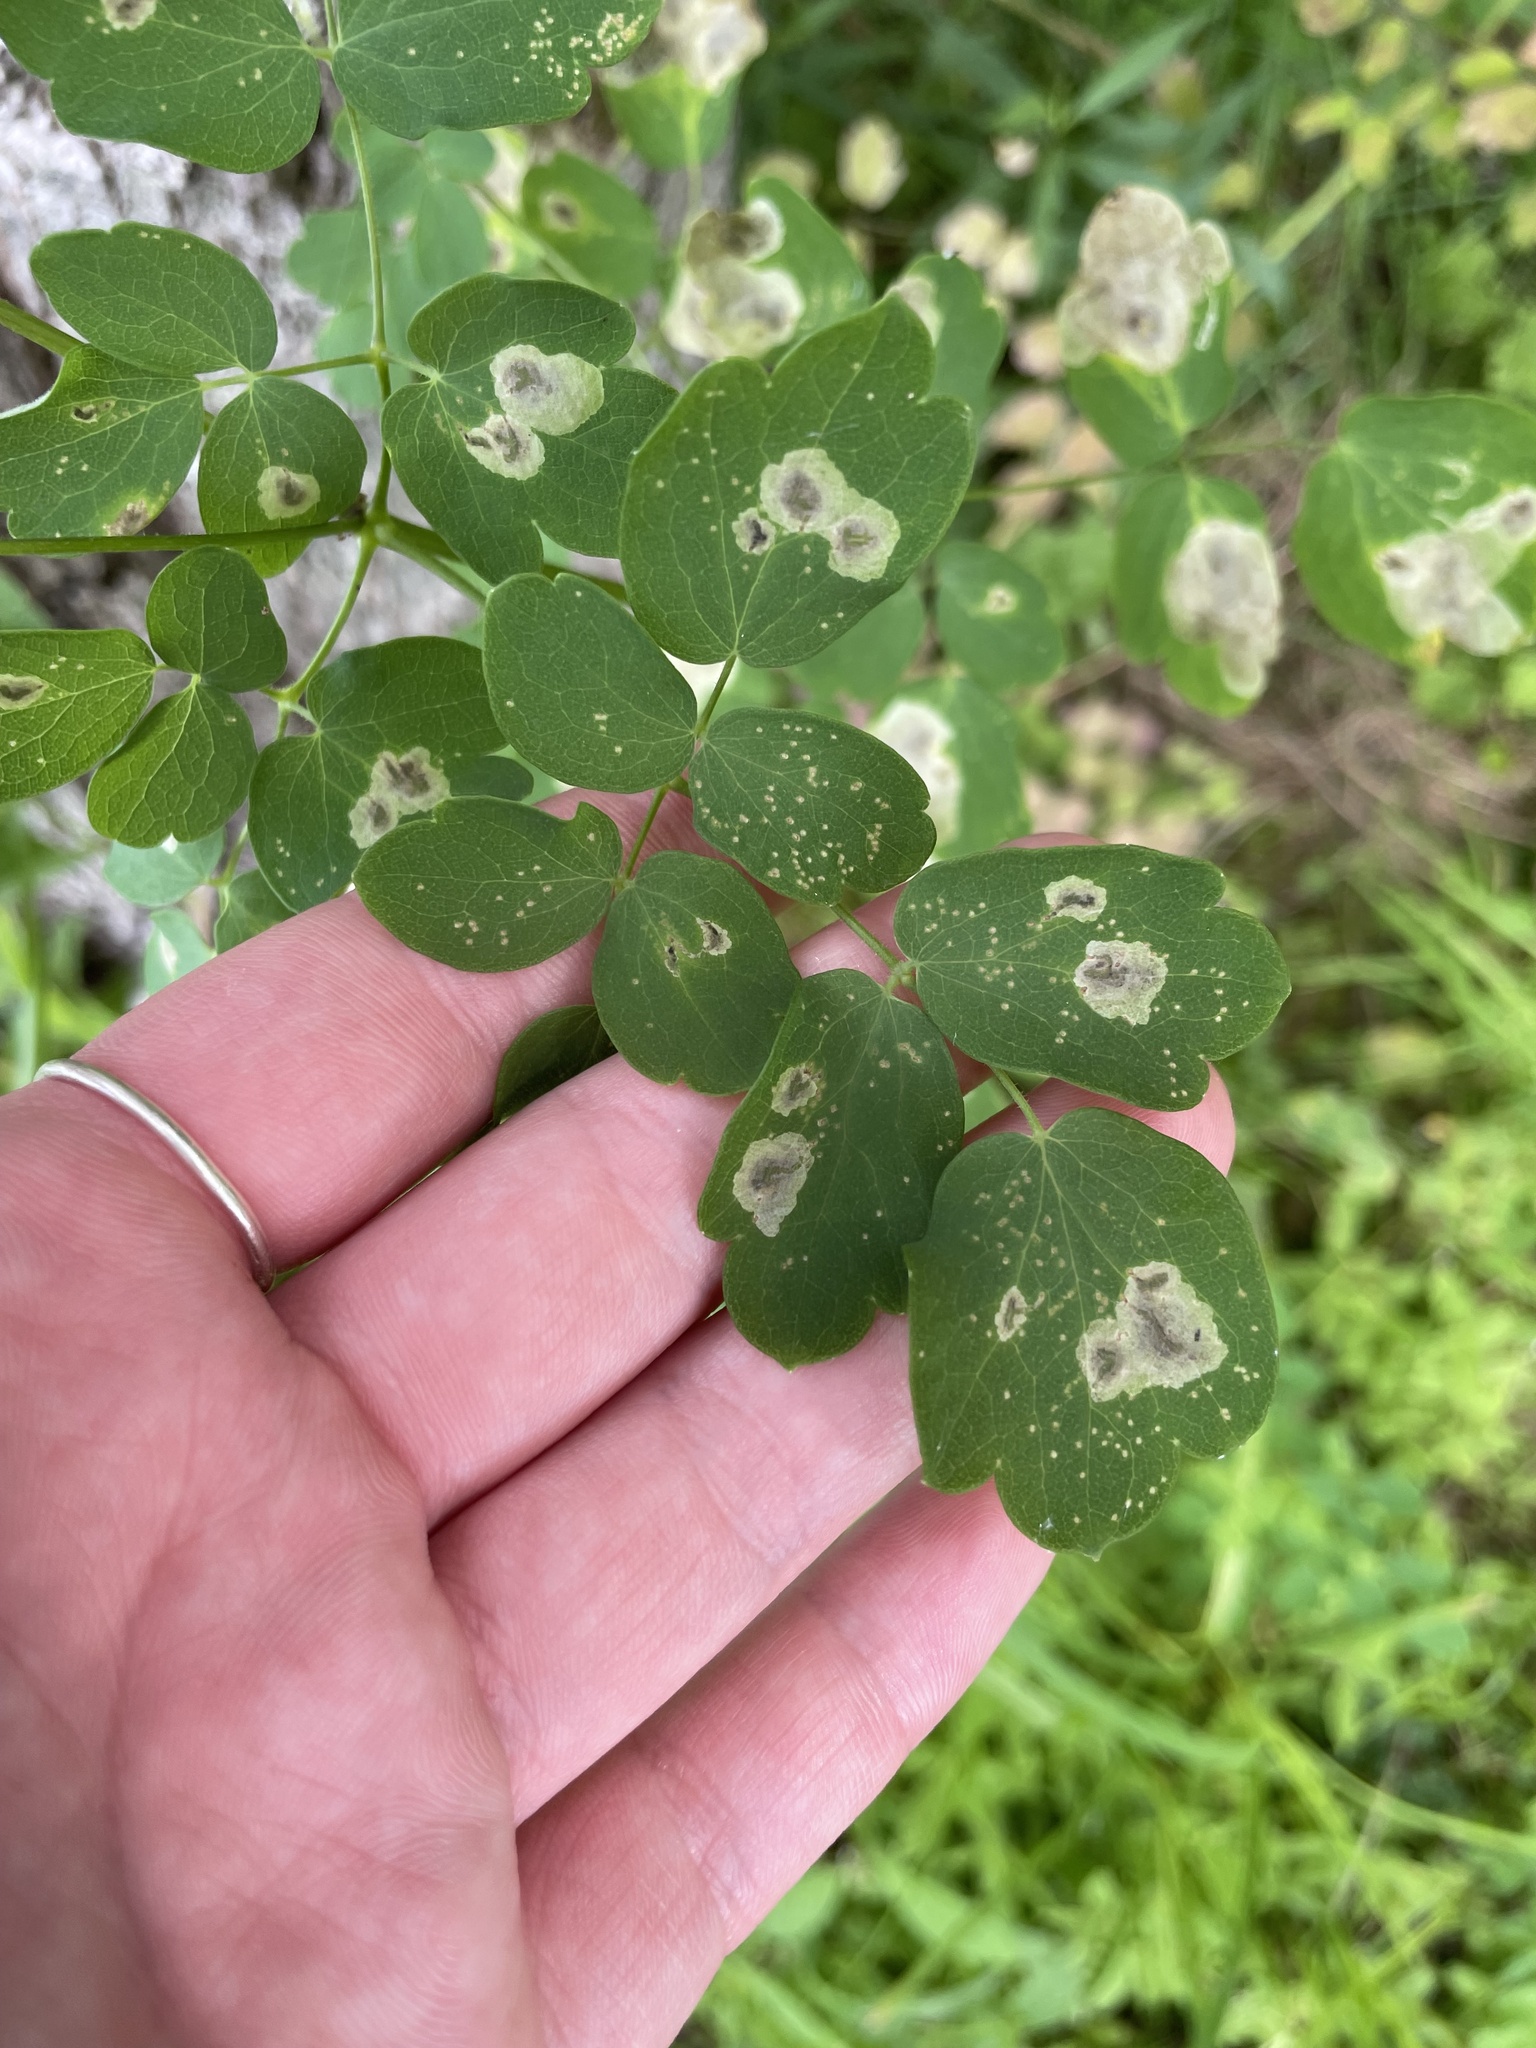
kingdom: Animalia
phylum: Arthropoda
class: Insecta
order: Diptera
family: Agromyzidae
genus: Phytomyza
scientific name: Phytomyza plumiseta
